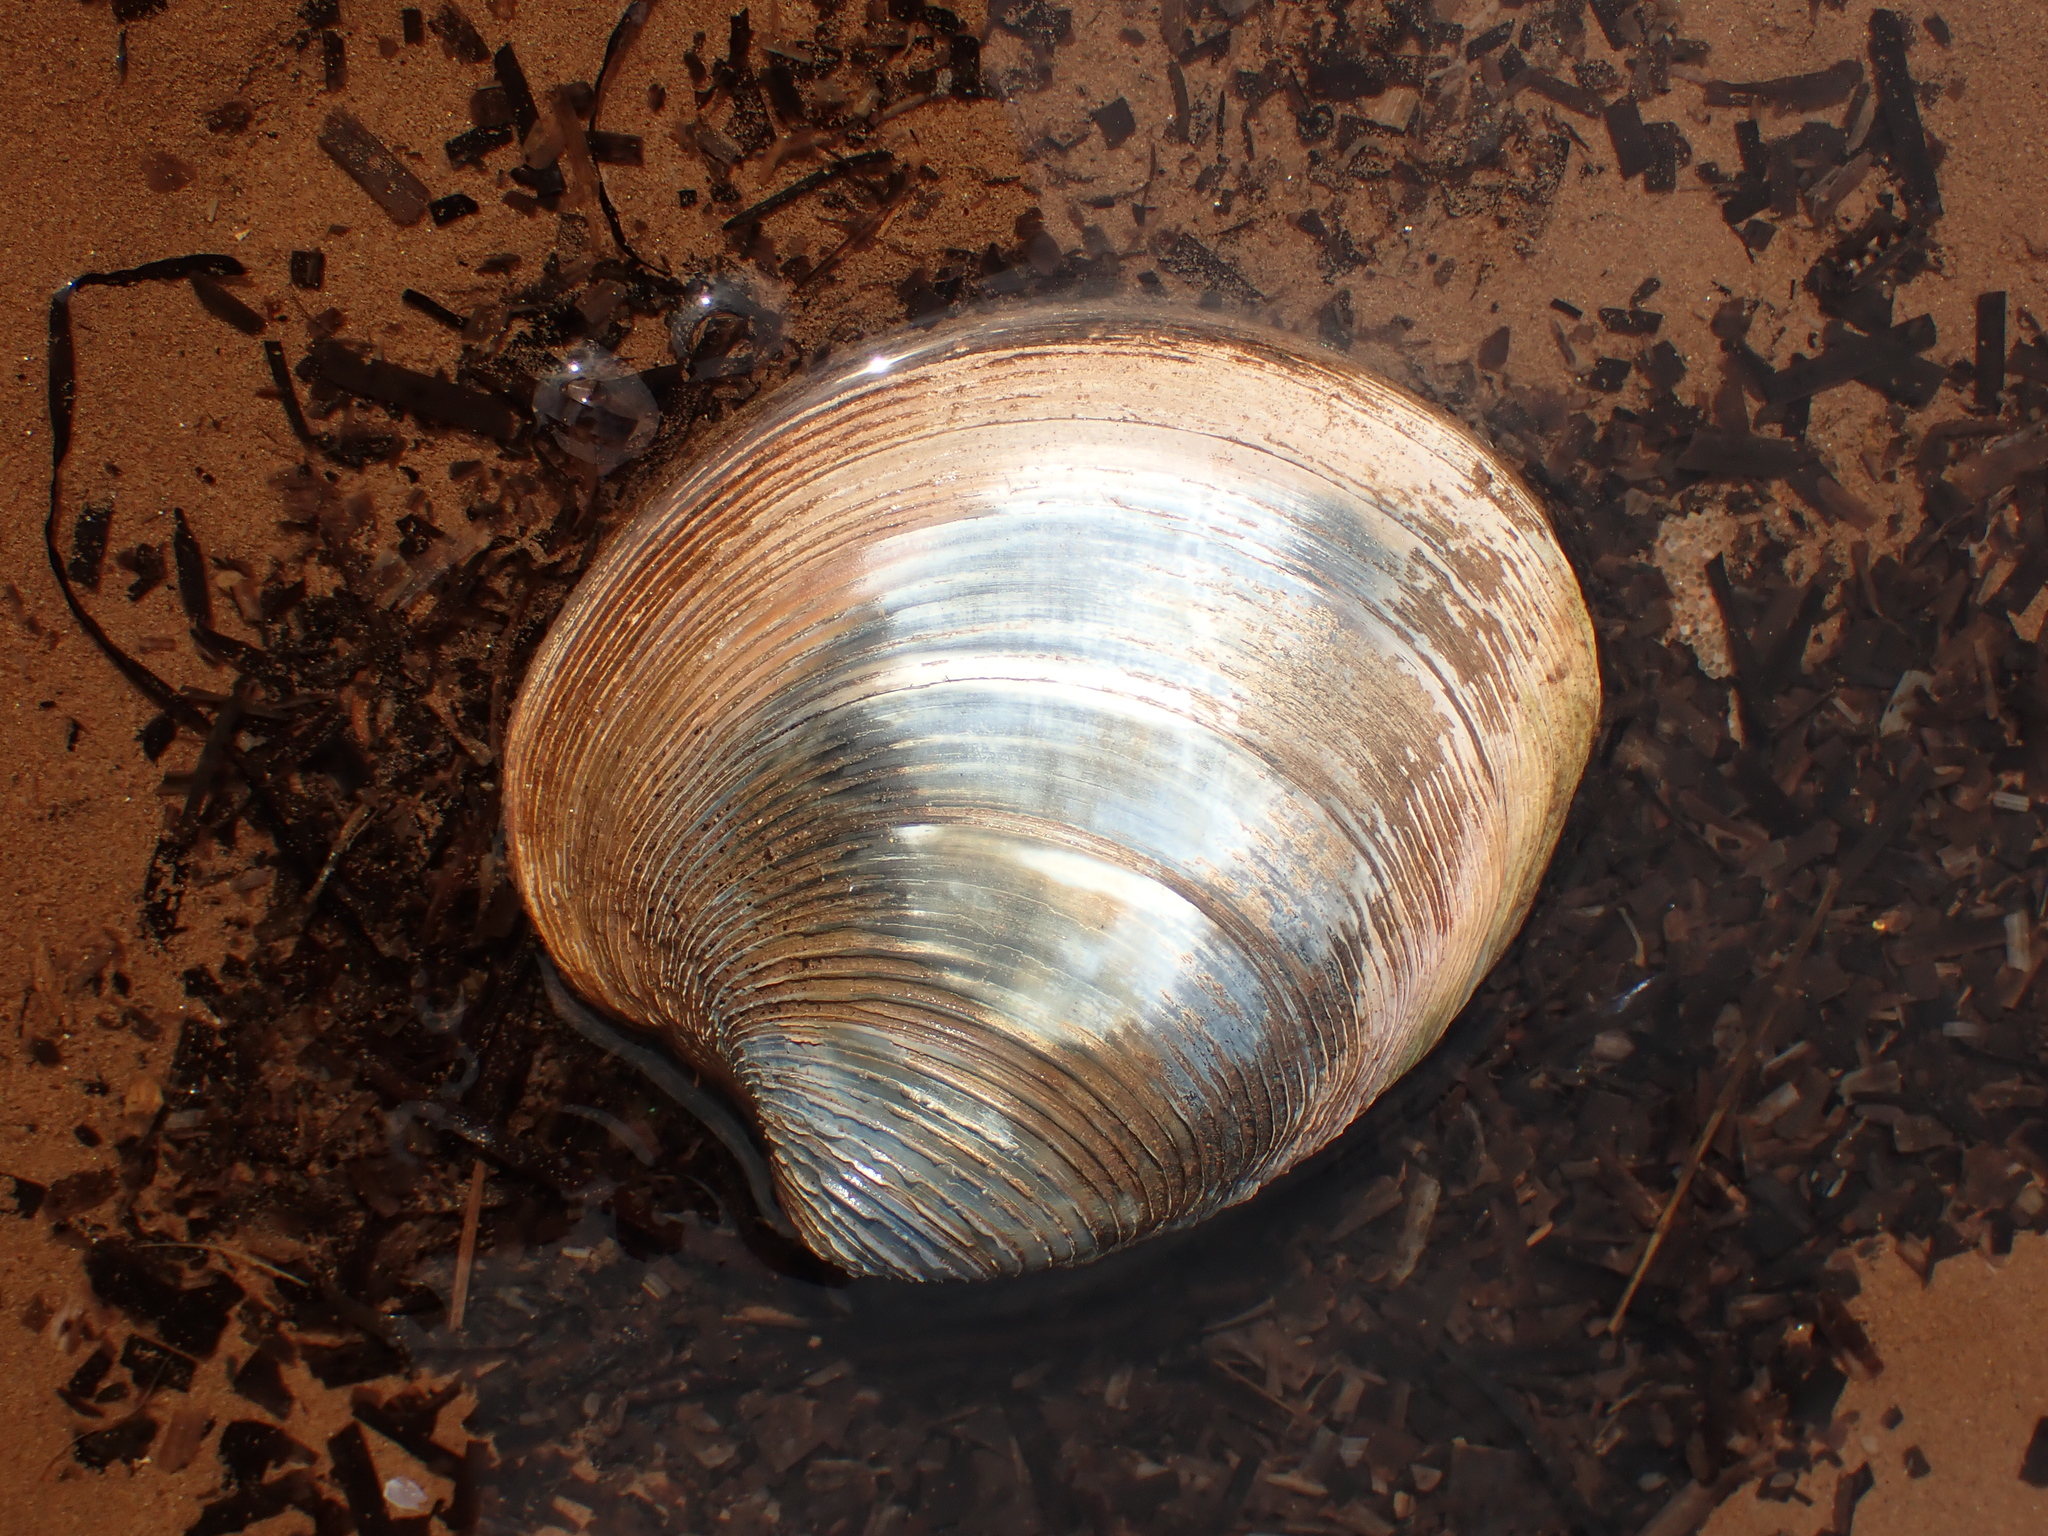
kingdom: Animalia
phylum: Mollusca
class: Bivalvia
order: Venerida
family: Veneridae
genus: Mercenaria
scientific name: Mercenaria mercenaria
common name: American hard-shelled clam
